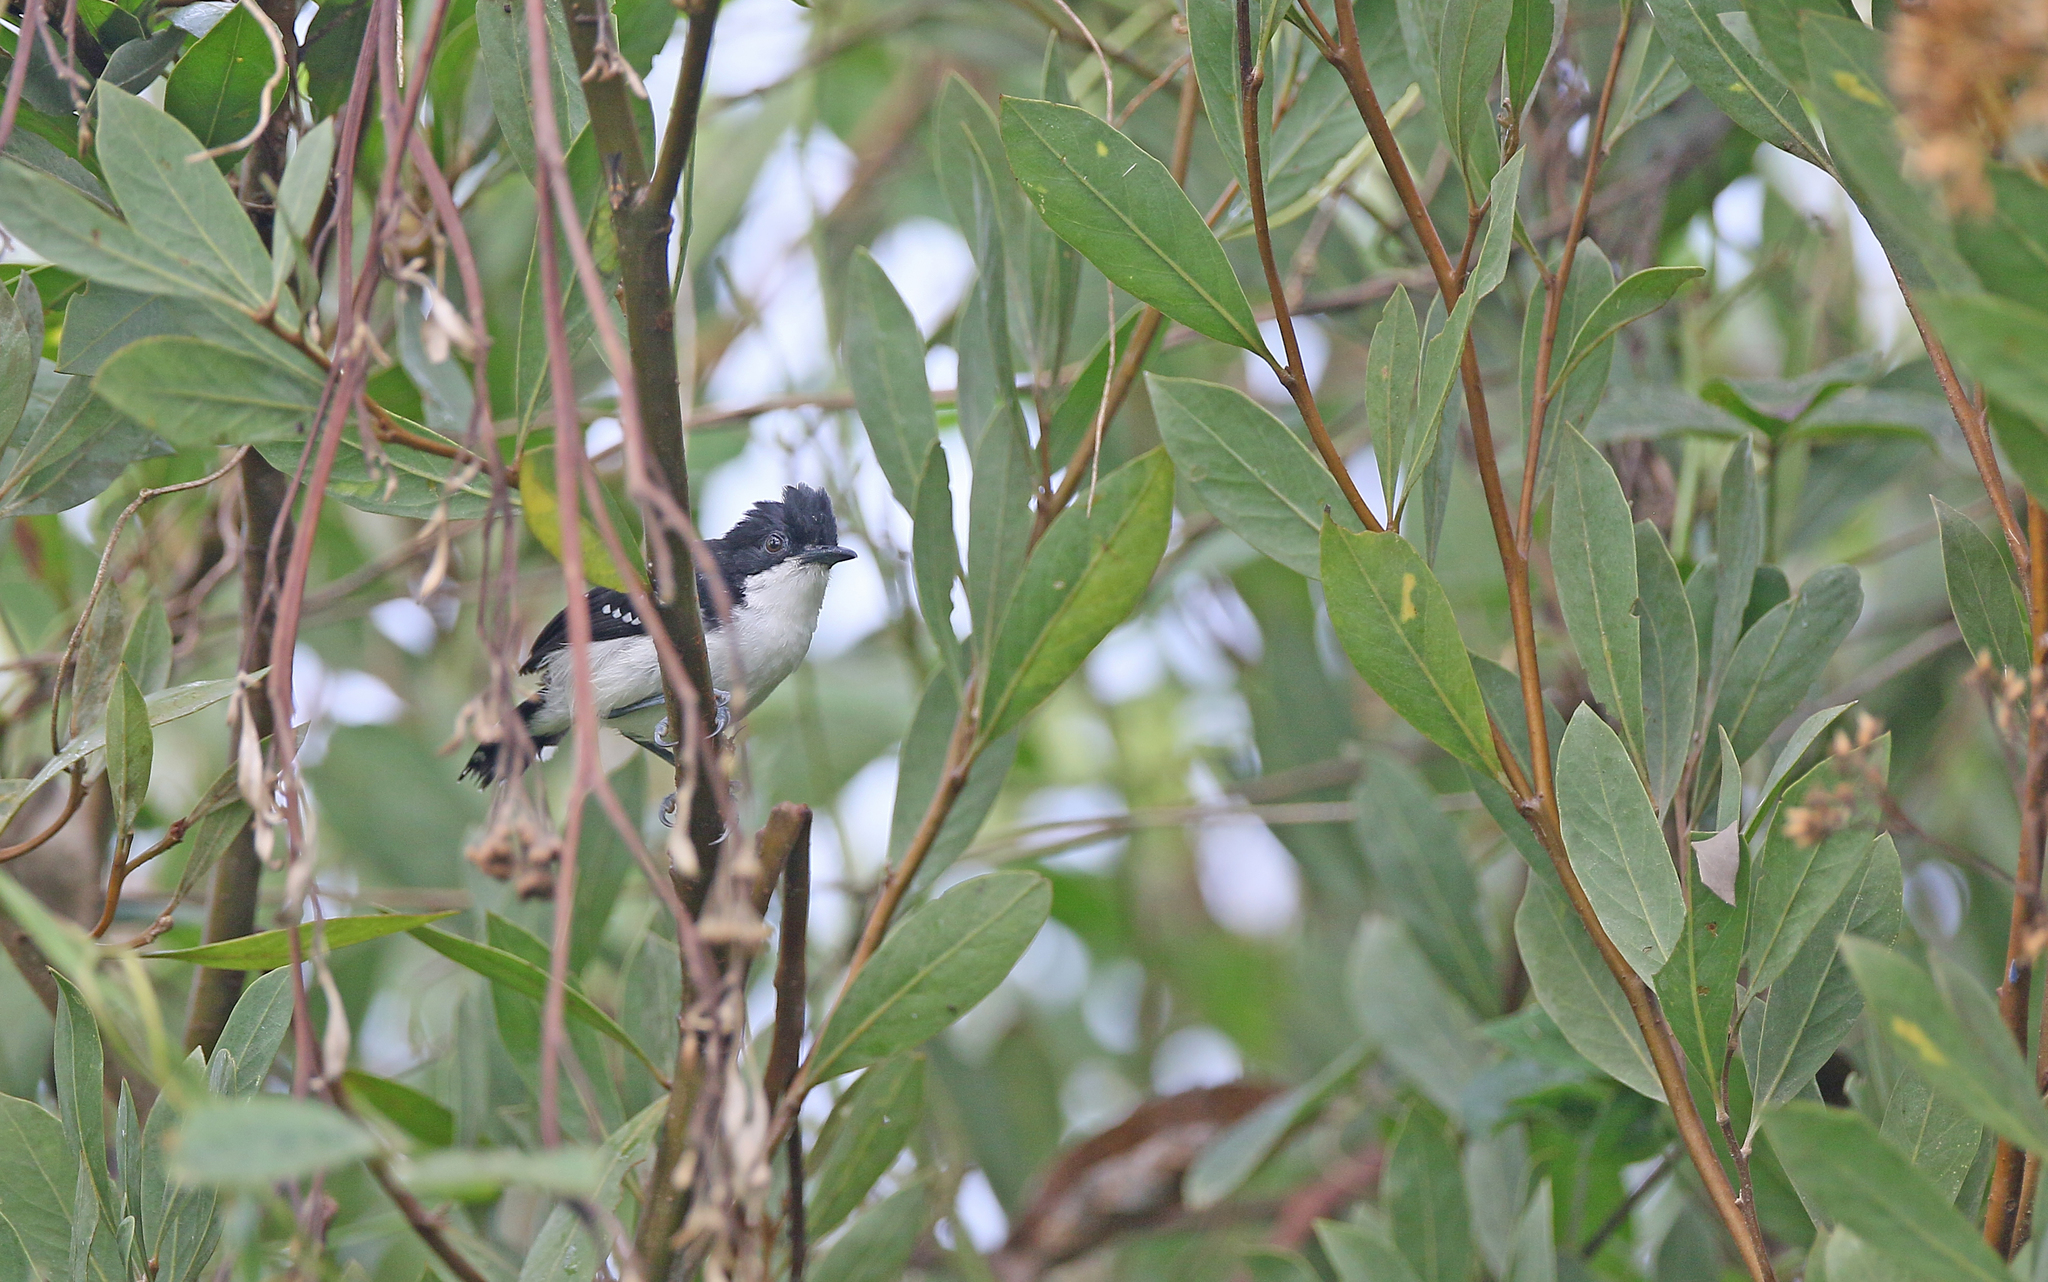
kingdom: Animalia
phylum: Chordata
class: Aves
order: Passeriformes
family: Thamnophilidae
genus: Myrmochanes
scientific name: Myrmochanes hemileucus
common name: Black-and-white antbird
